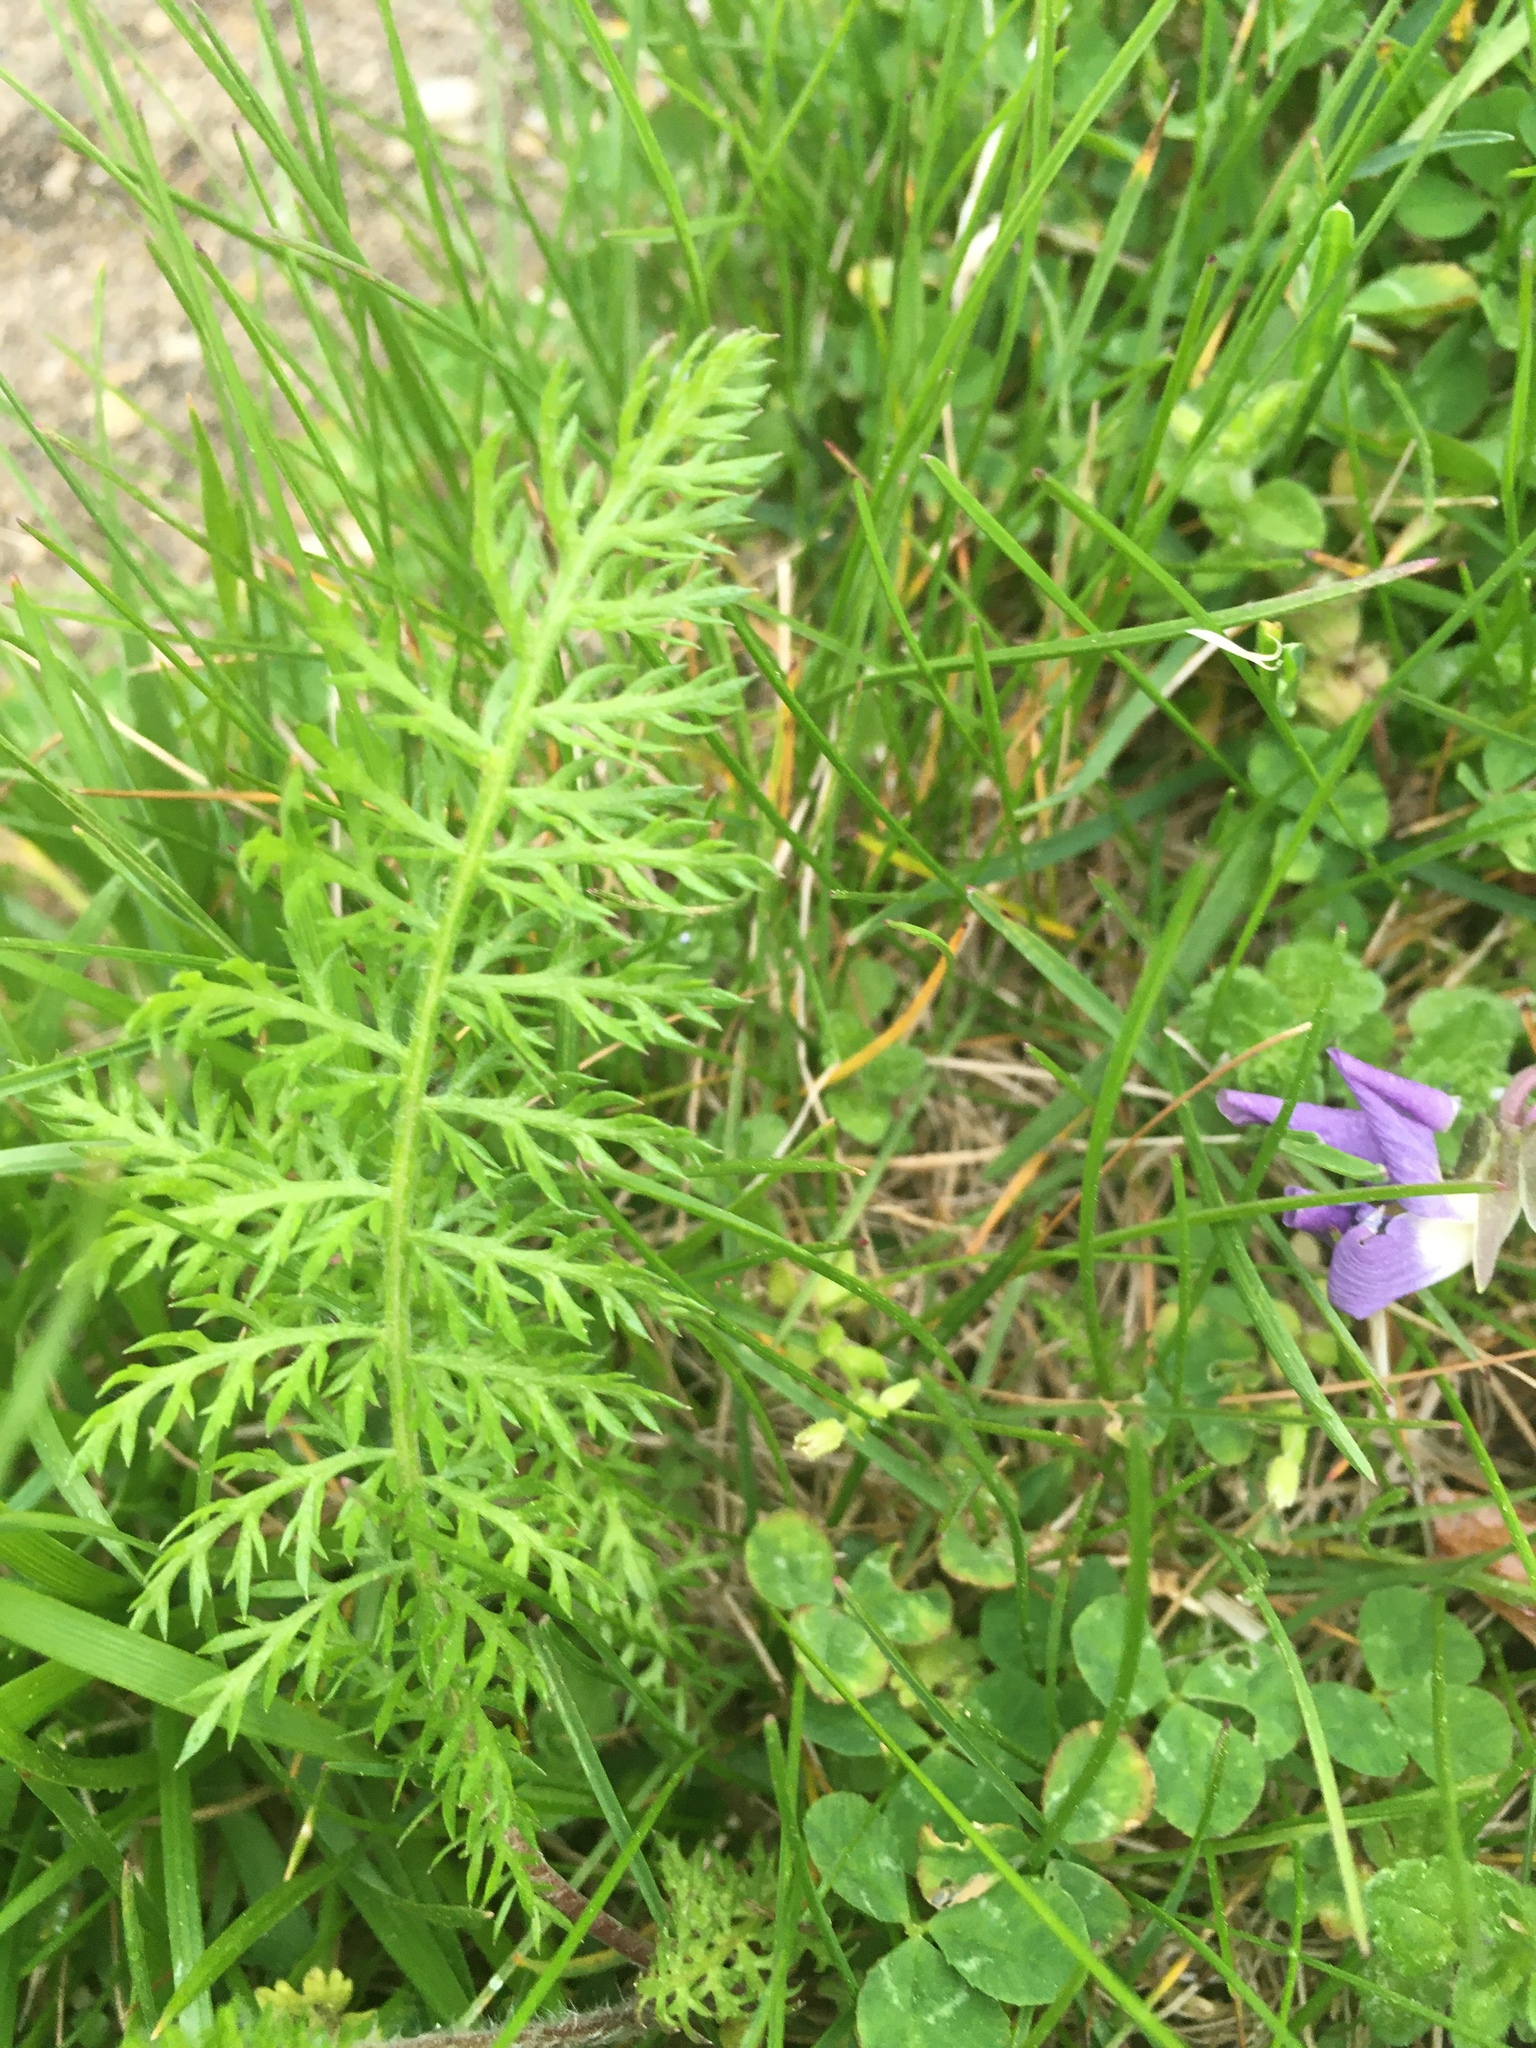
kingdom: Plantae
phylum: Tracheophyta
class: Magnoliopsida
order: Asterales
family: Asteraceae
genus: Achillea
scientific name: Achillea millefolium
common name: Yarrow
